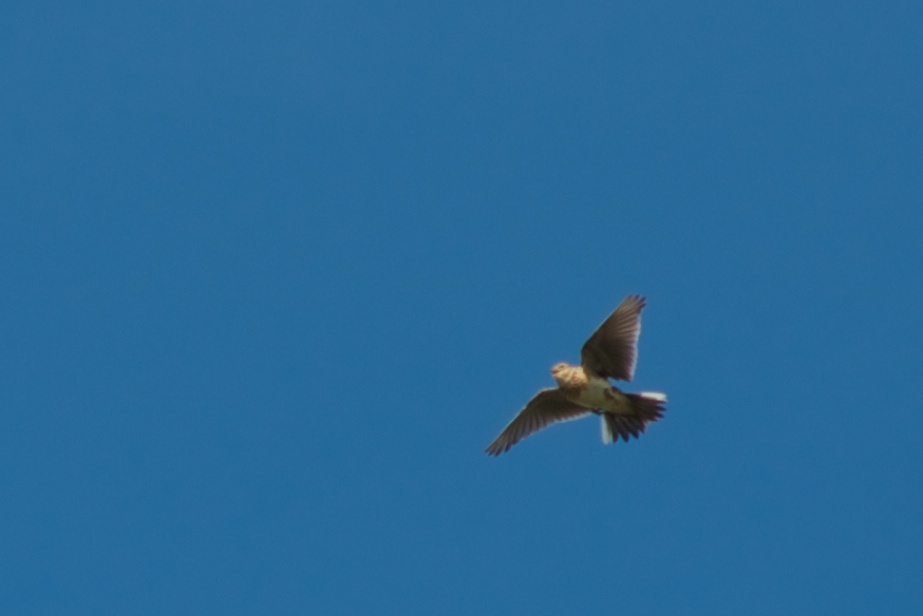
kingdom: Animalia
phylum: Chordata
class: Aves
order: Passeriformes
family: Alaudidae
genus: Alauda
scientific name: Alauda arvensis
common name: Eurasian skylark
